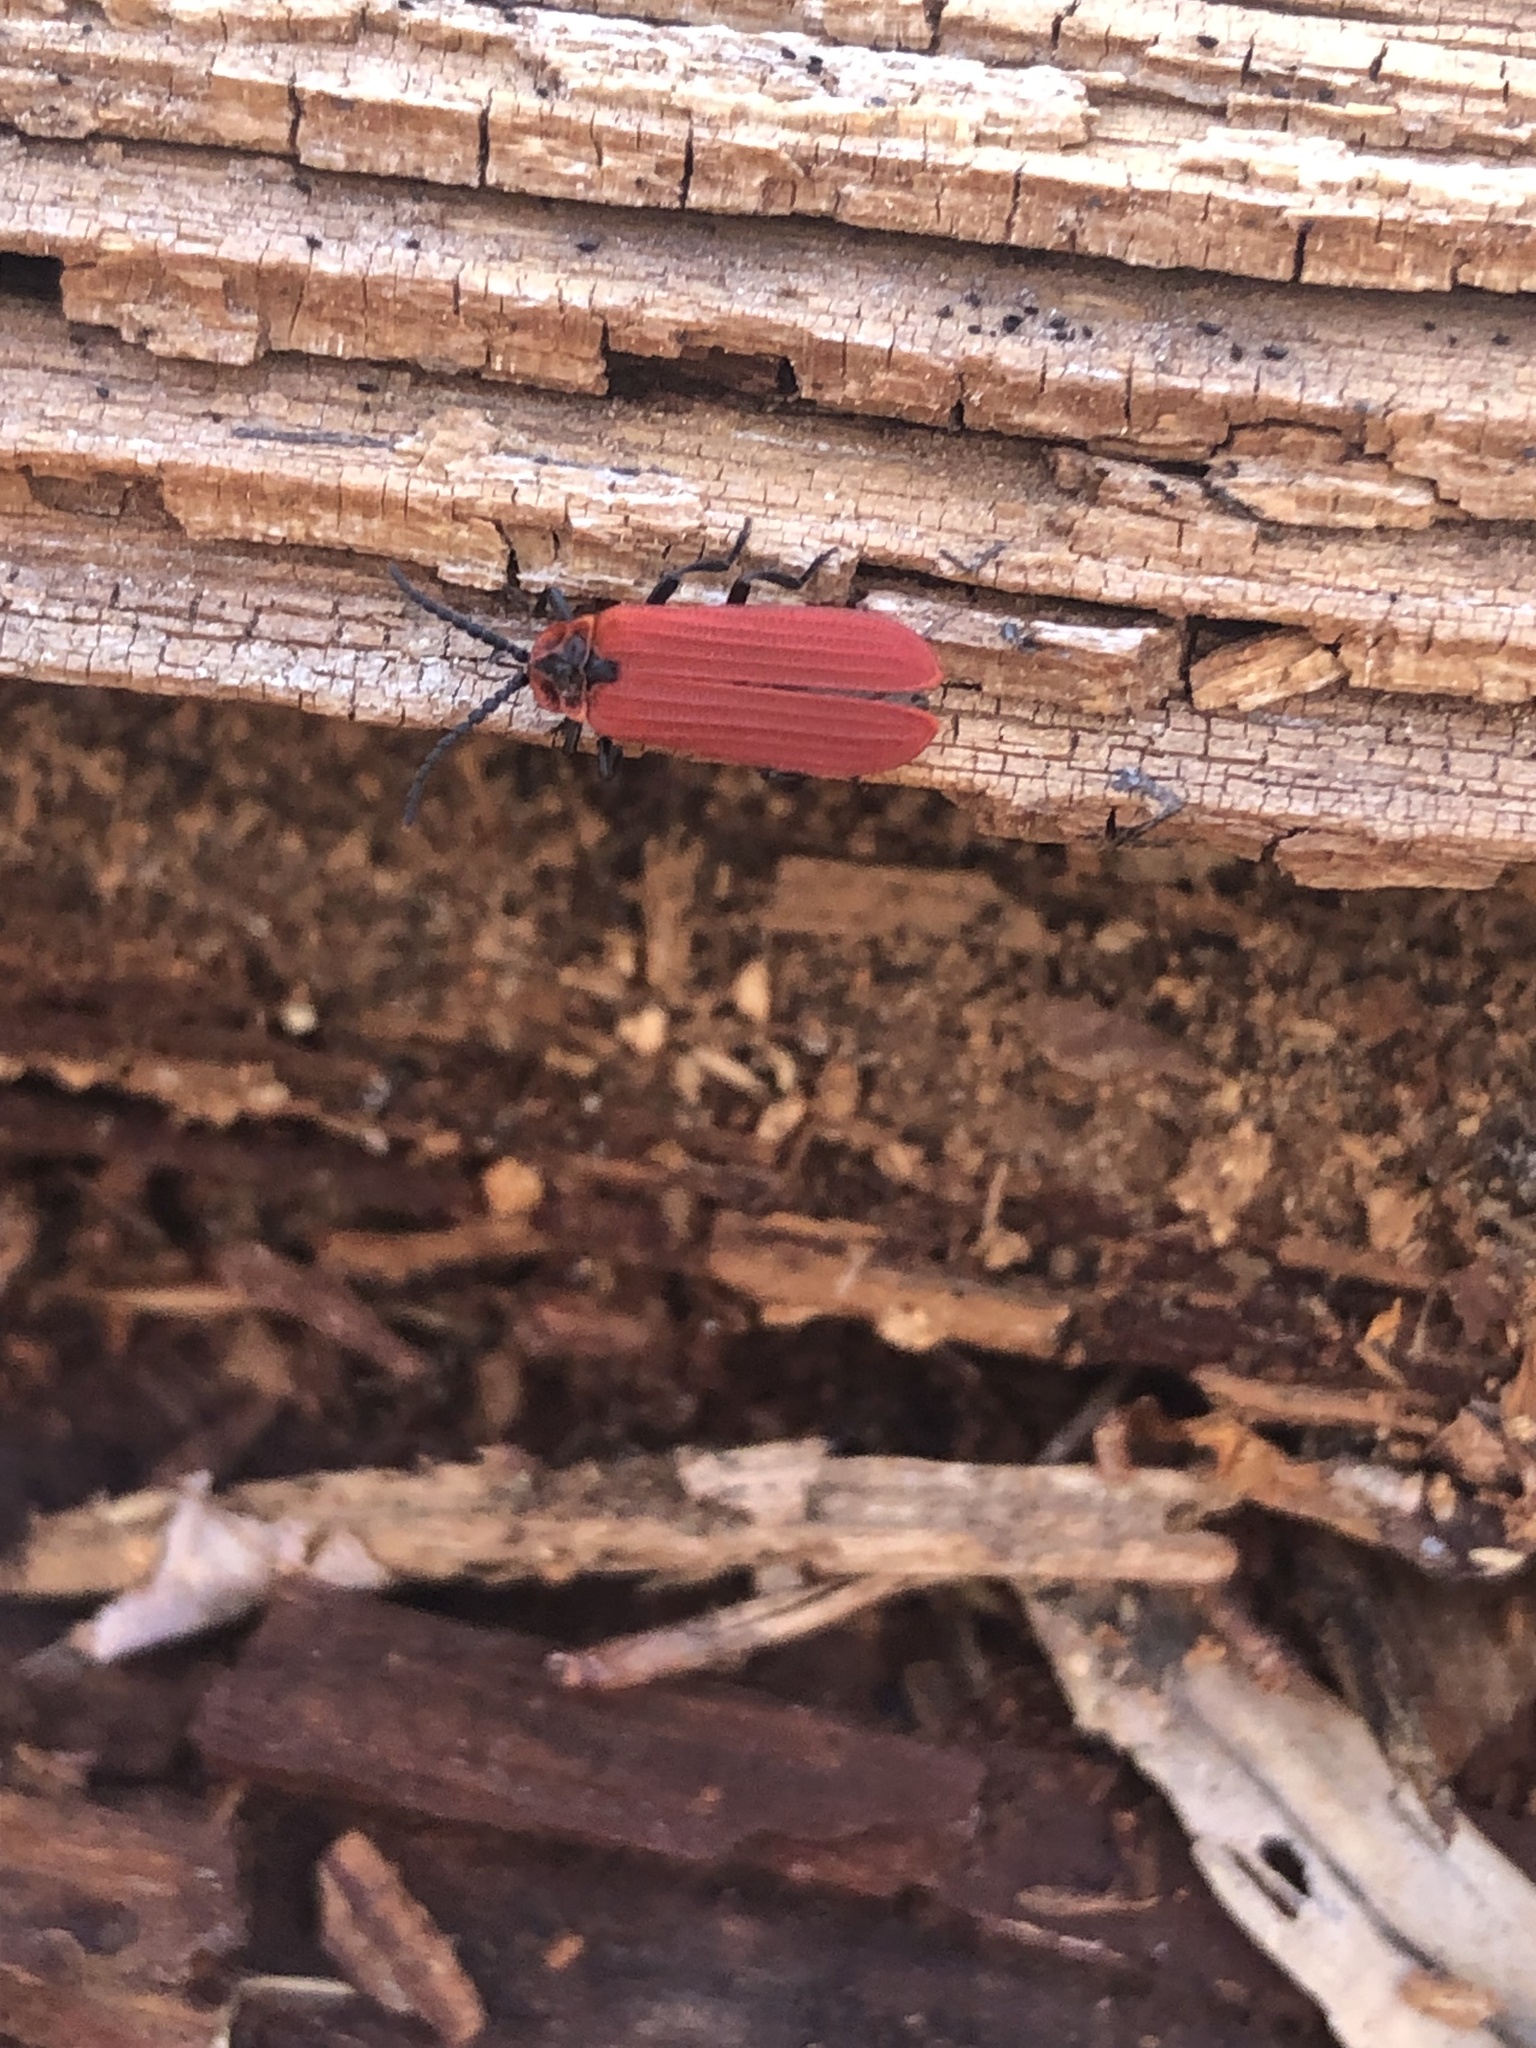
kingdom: Animalia
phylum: Arthropoda
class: Insecta
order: Coleoptera
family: Lycidae
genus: Dictyoptera
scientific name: Dictyoptera aurora
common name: Golden net-winged beetle
